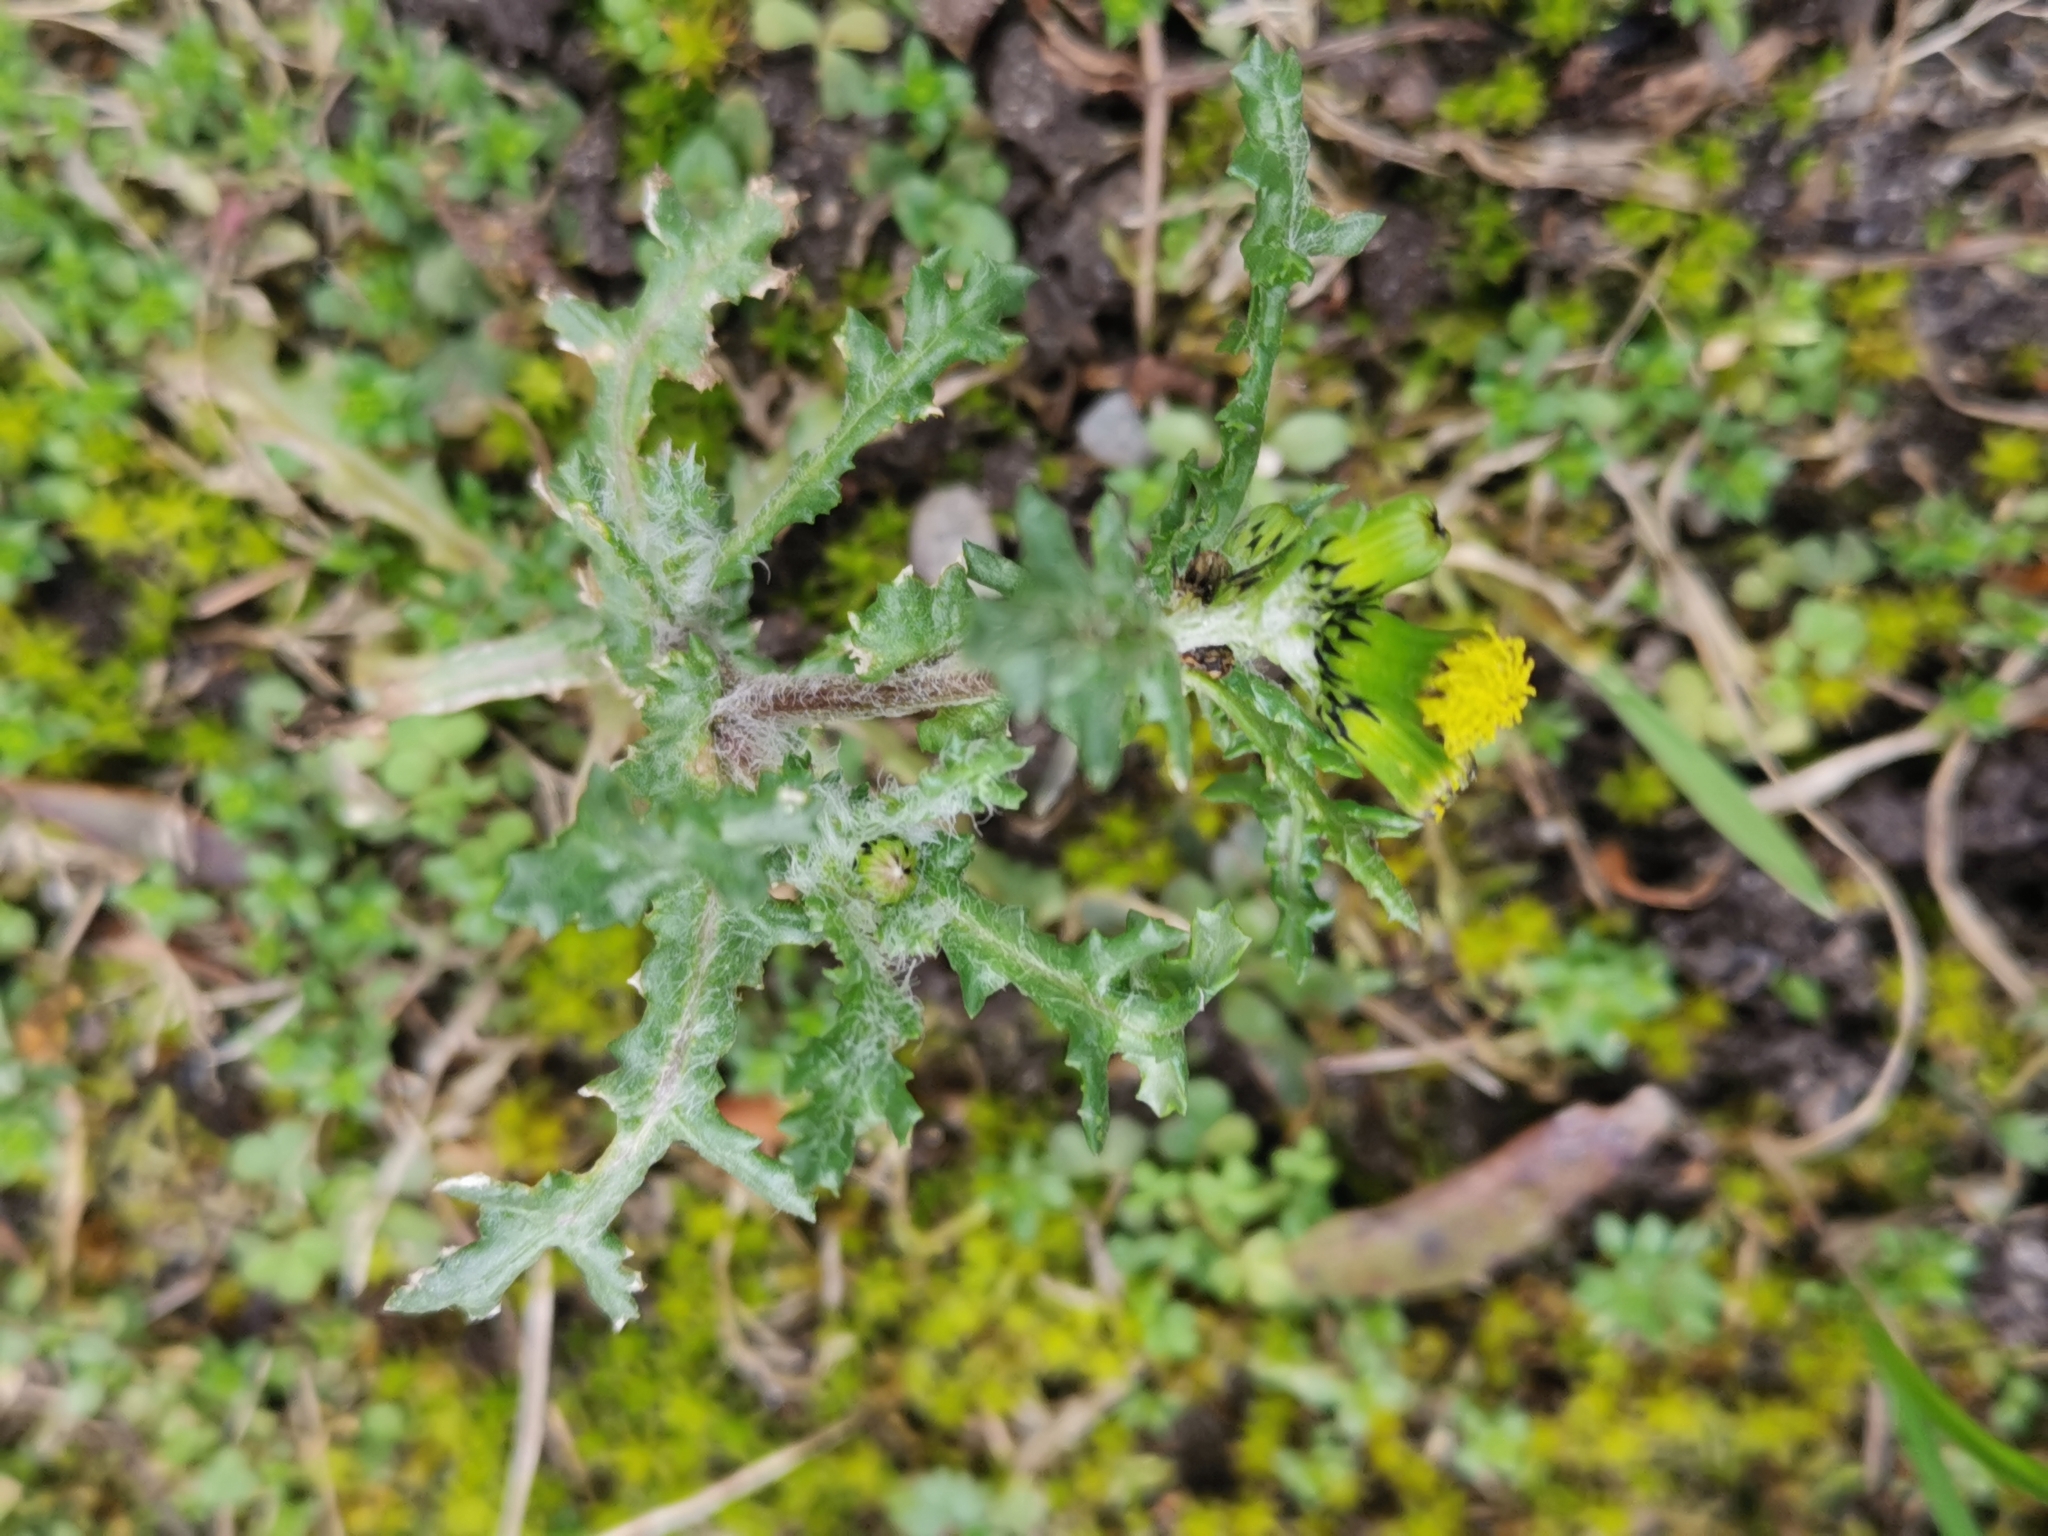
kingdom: Plantae
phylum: Tracheophyta
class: Magnoliopsida
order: Asterales
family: Asteraceae
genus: Senecio
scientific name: Senecio vulgaris
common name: Old-man-in-the-spring
